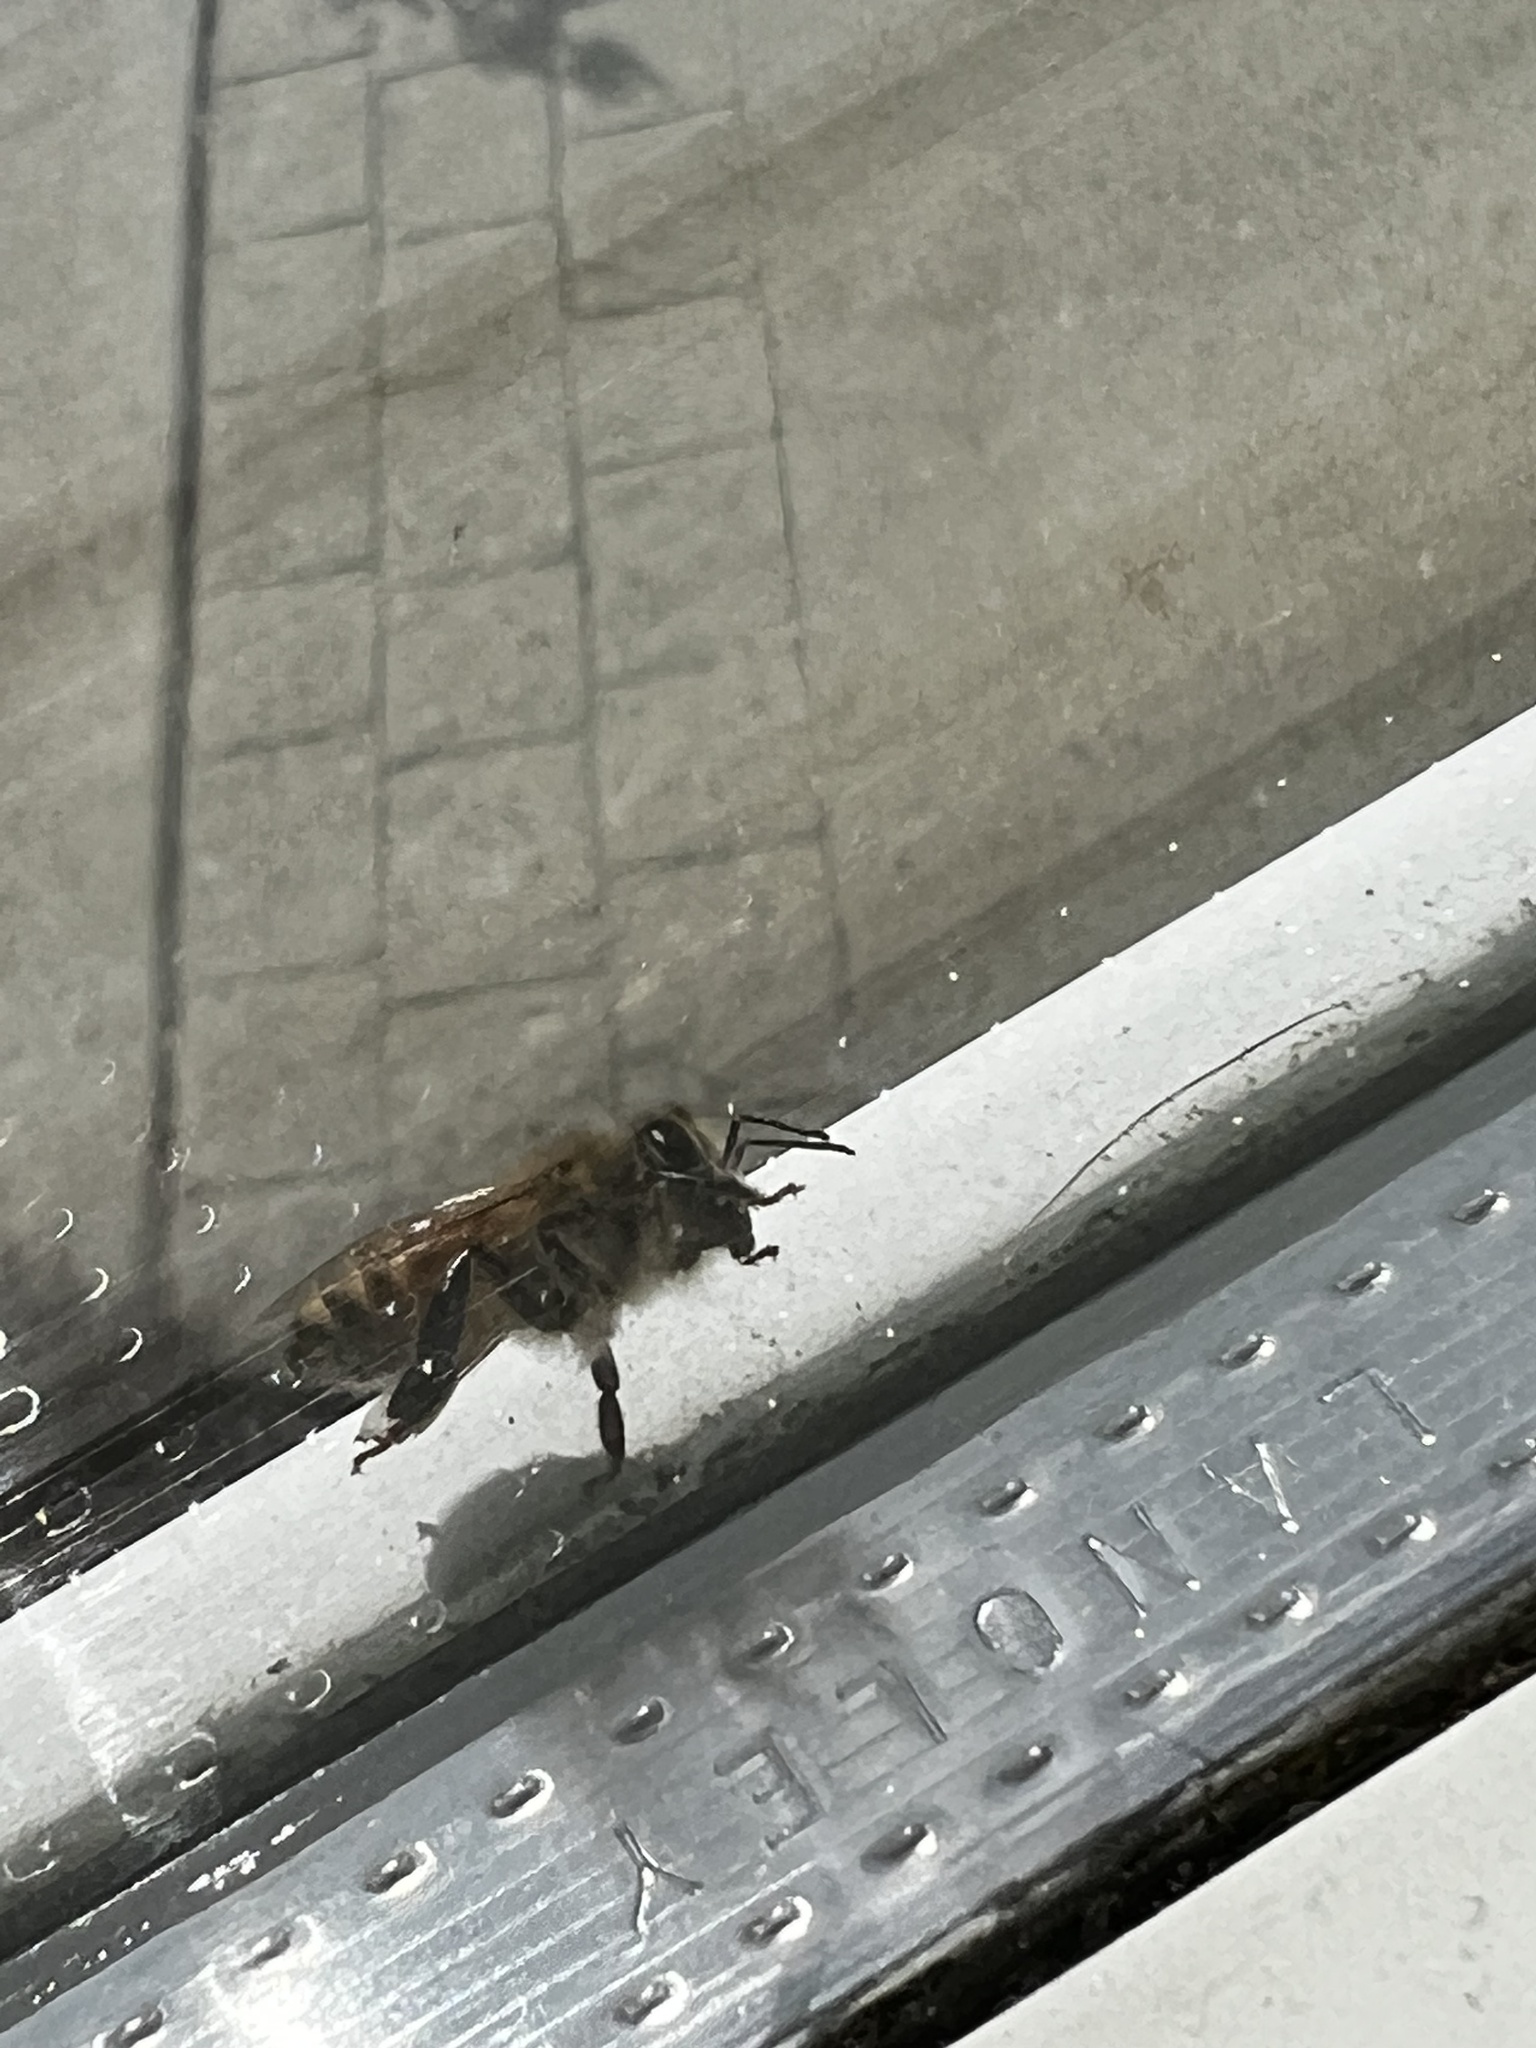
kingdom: Animalia
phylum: Arthropoda
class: Insecta
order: Hymenoptera
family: Apidae
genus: Apis
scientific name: Apis mellifera
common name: Honey bee
